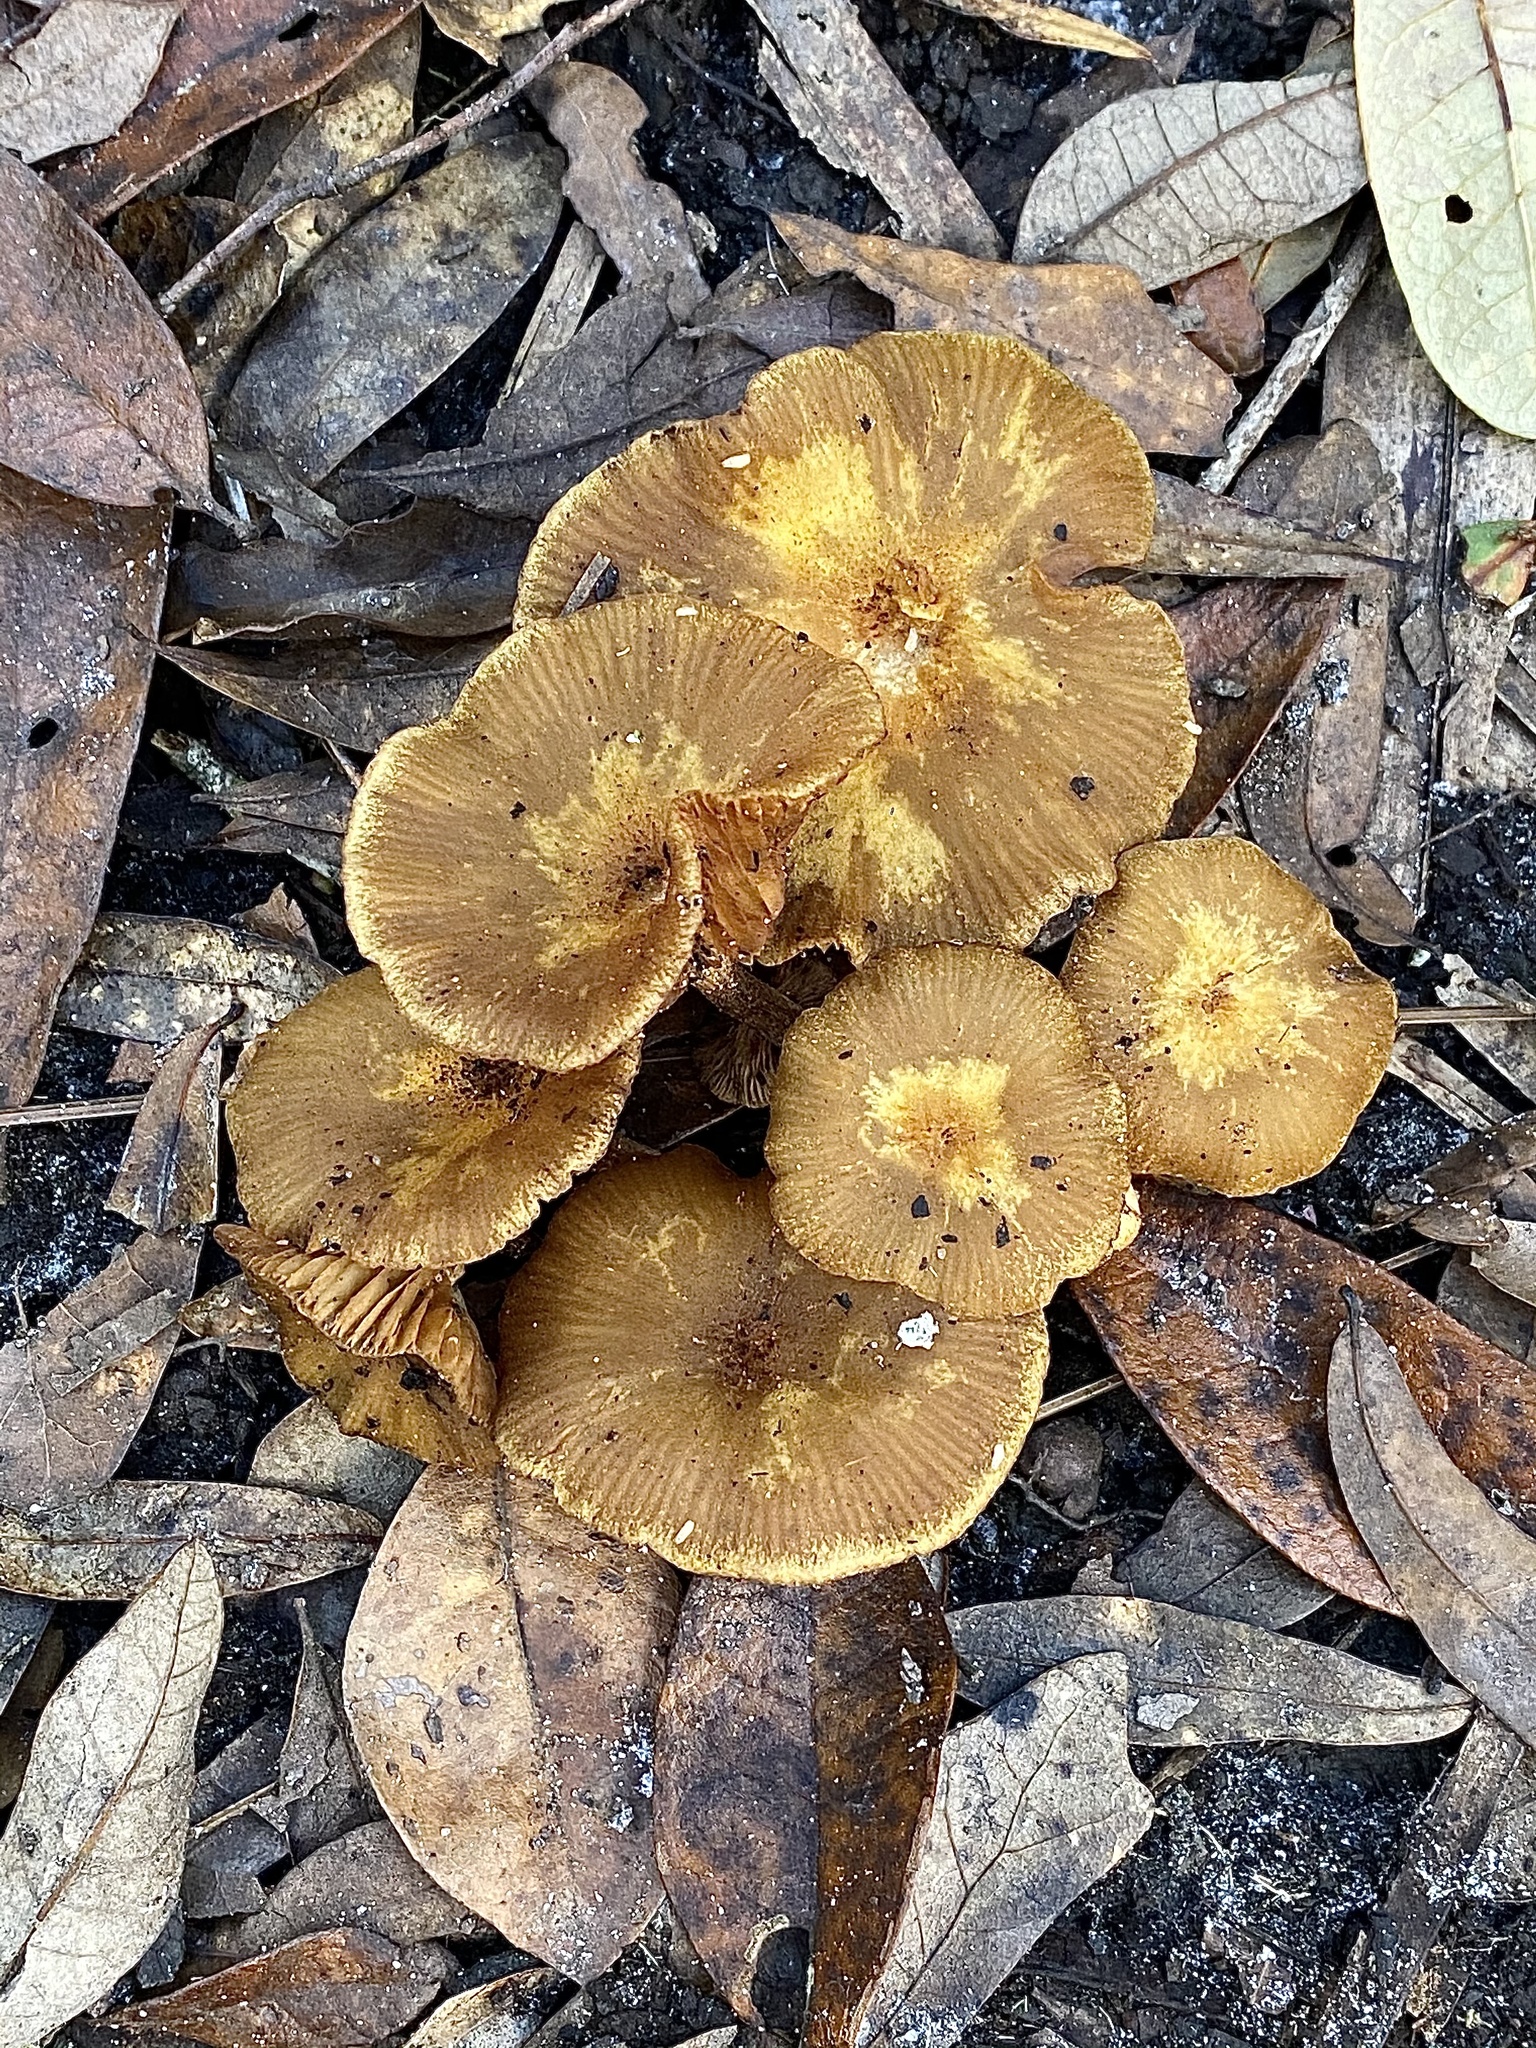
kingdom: Fungi
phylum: Basidiomycota
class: Agaricomycetes
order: Agaricales
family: Physalacriaceae
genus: Desarmillaria
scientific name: Desarmillaria caespitosa
